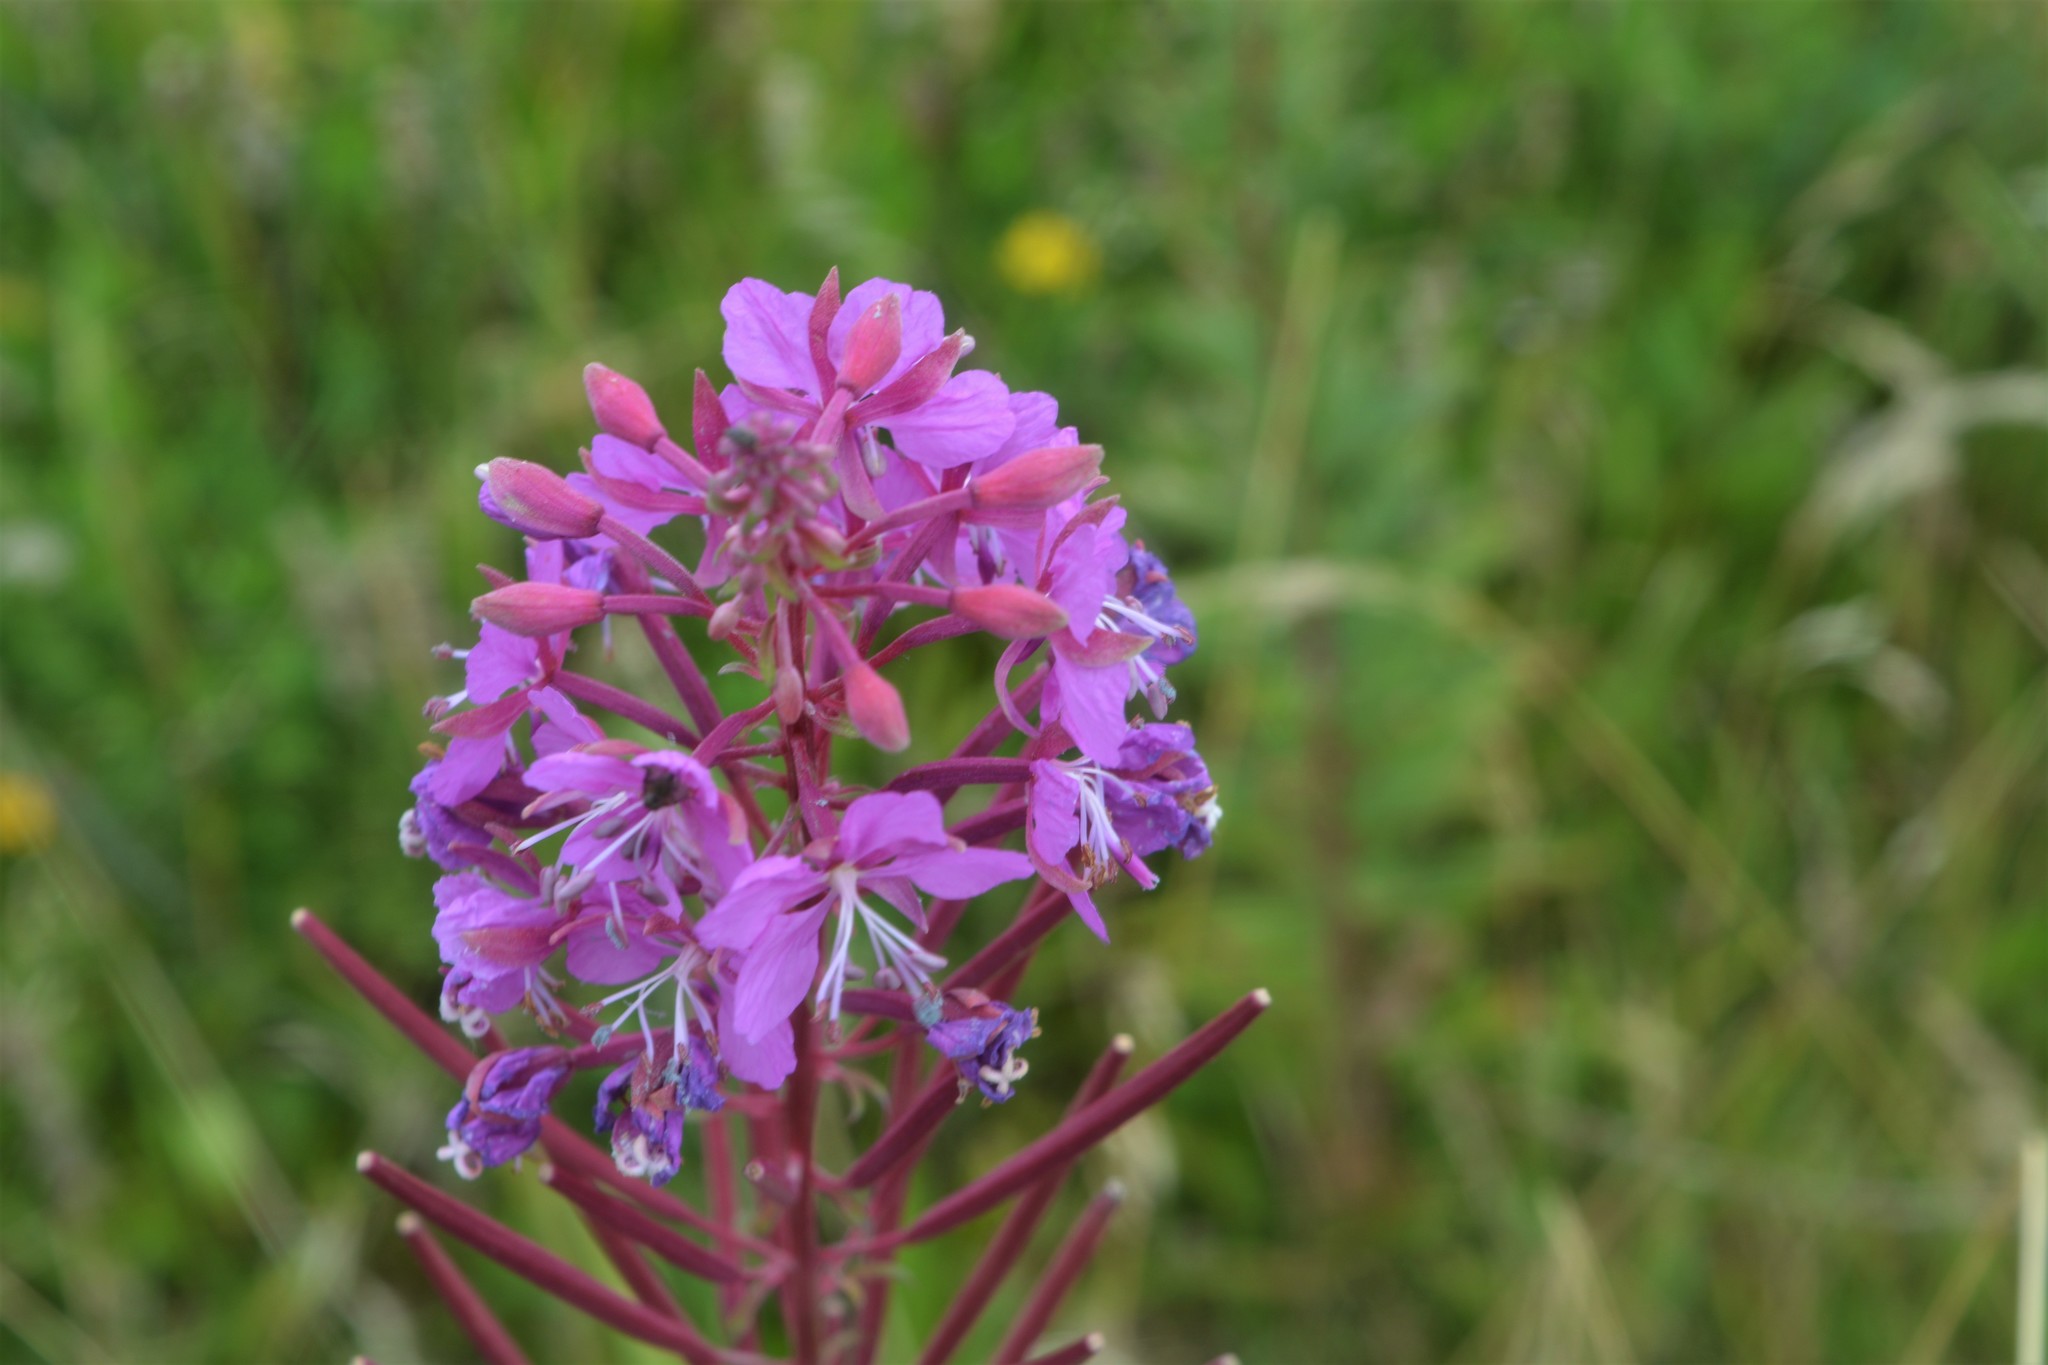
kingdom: Plantae
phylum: Tracheophyta
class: Magnoliopsida
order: Myrtales
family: Onagraceae
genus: Chamaenerion
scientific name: Chamaenerion angustifolium
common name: Fireweed
